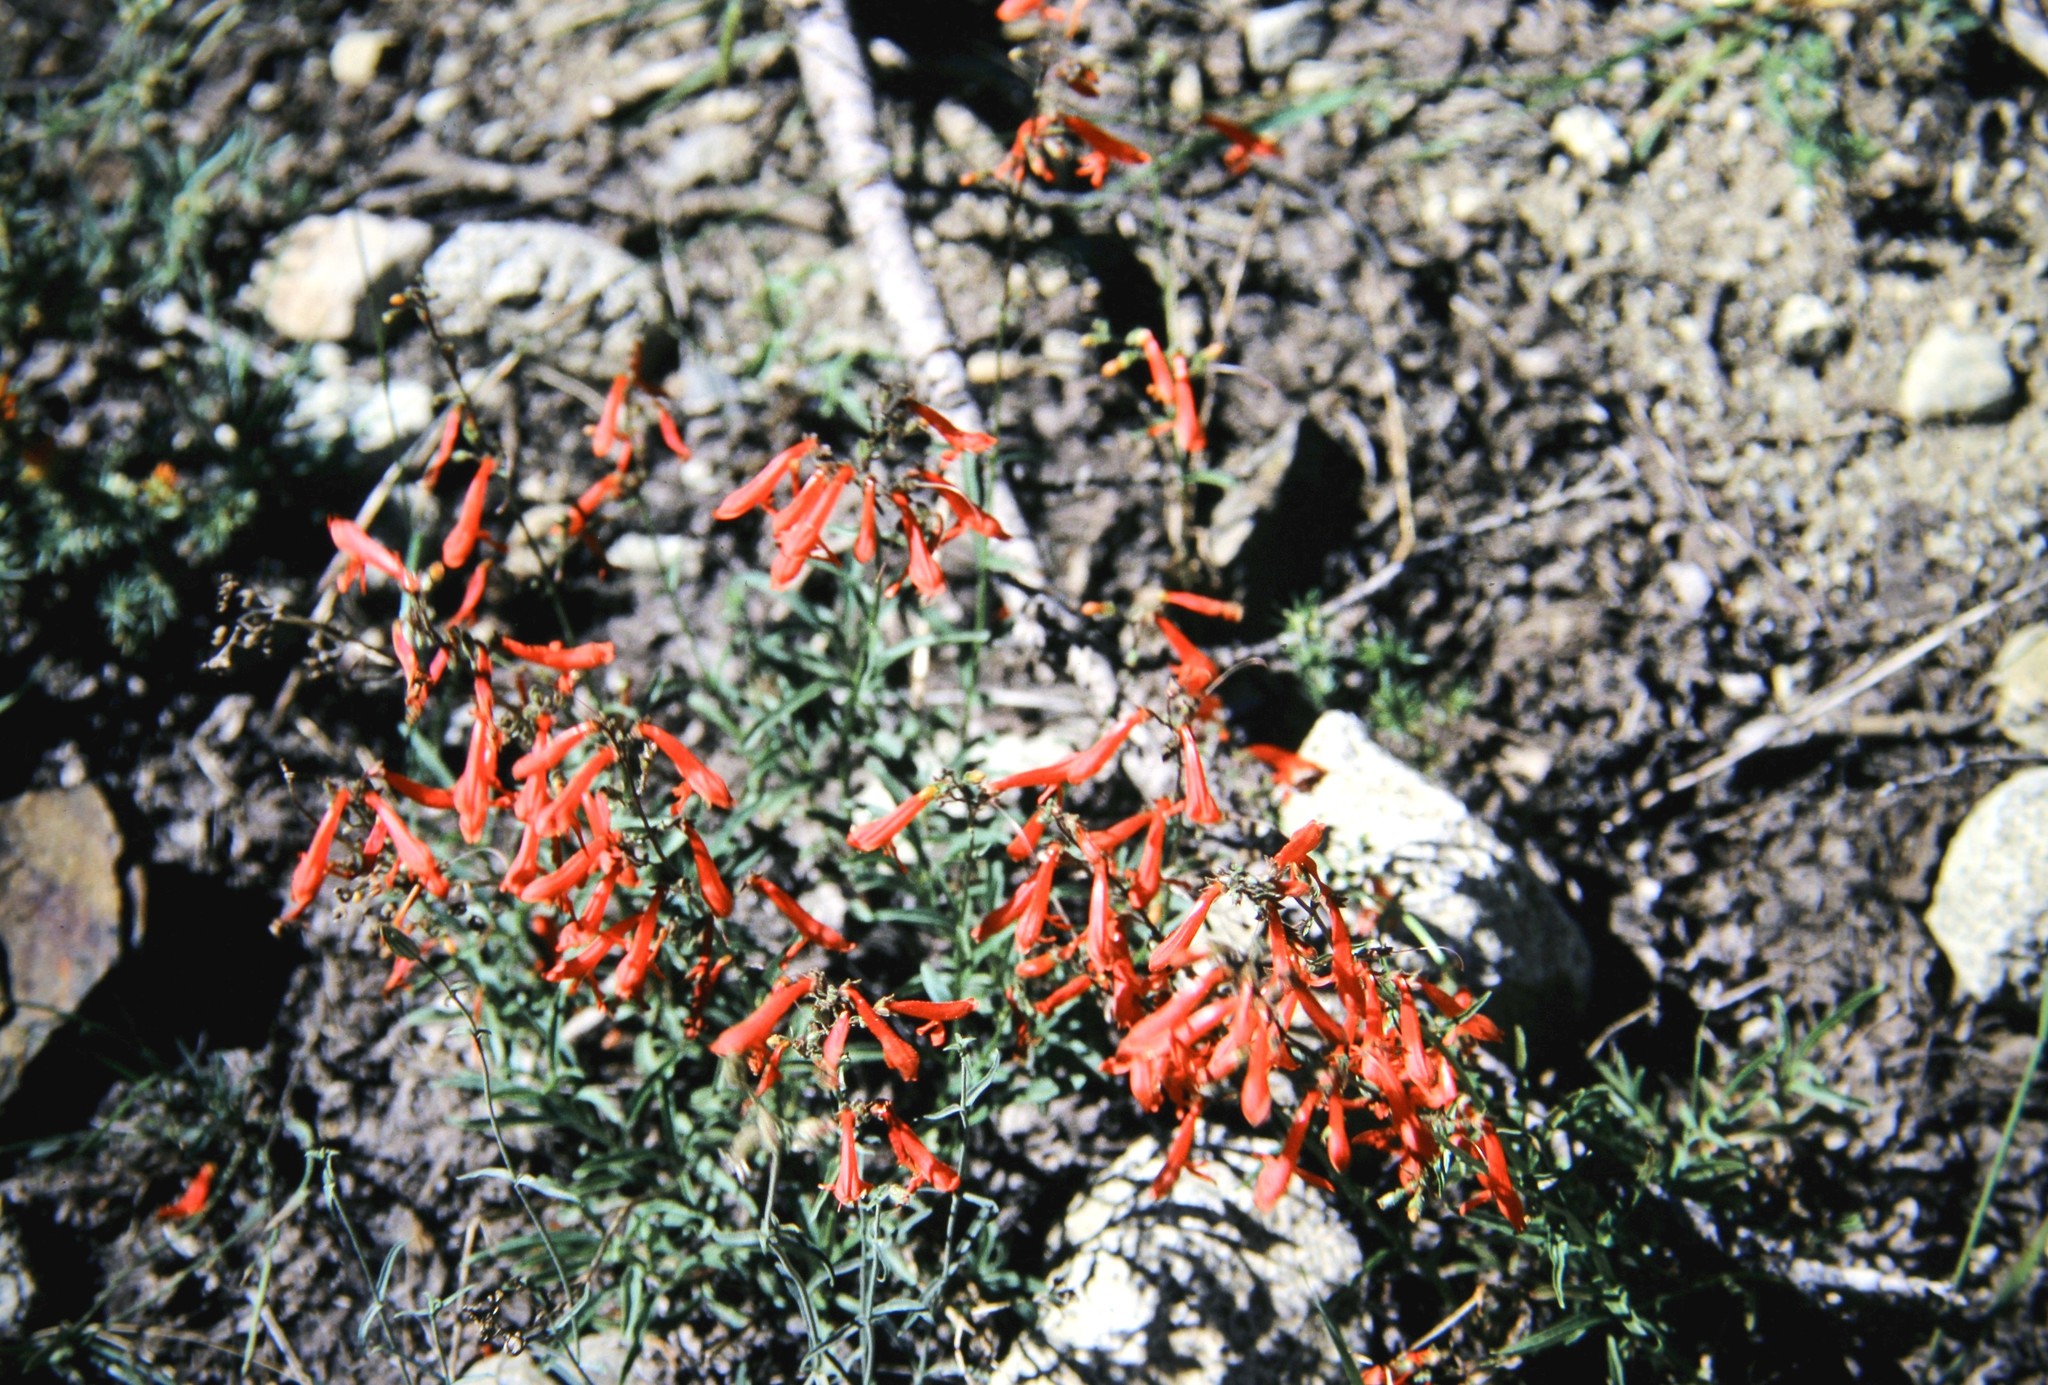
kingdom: Plantae
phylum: Tracheophyta
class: Magnoliopsida
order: Lamiales
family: Plantaginaceae
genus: Penstemon
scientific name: Penstemon rostriflorus
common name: Bridges's penstemon
